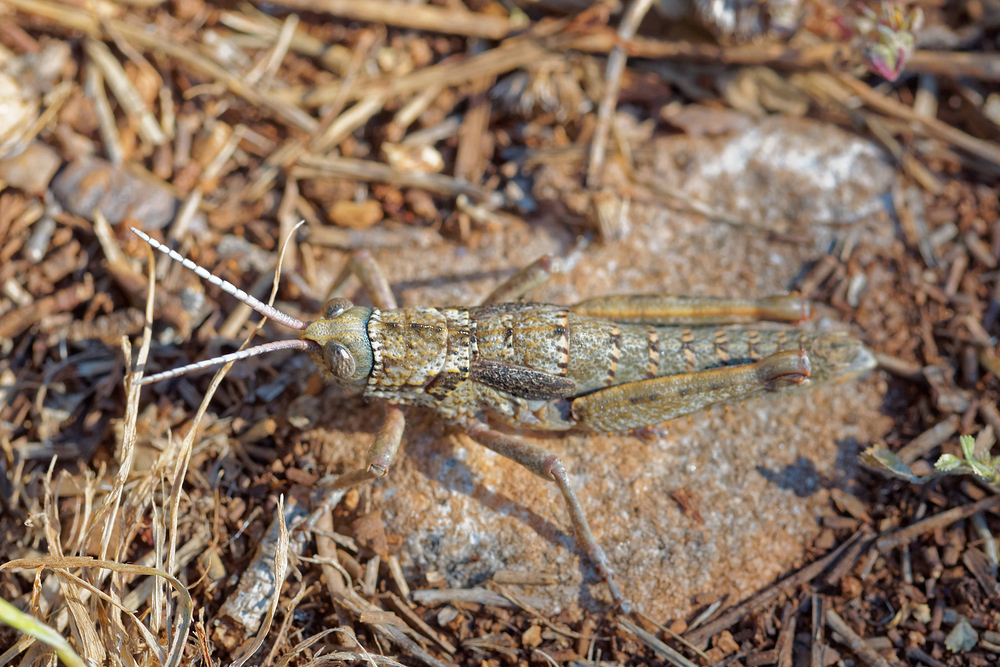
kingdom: Animalia
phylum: Arthropoda
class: Insecta
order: Orthoptera
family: Pamphagidae
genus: Acinipe
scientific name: Acinipe hesperica
